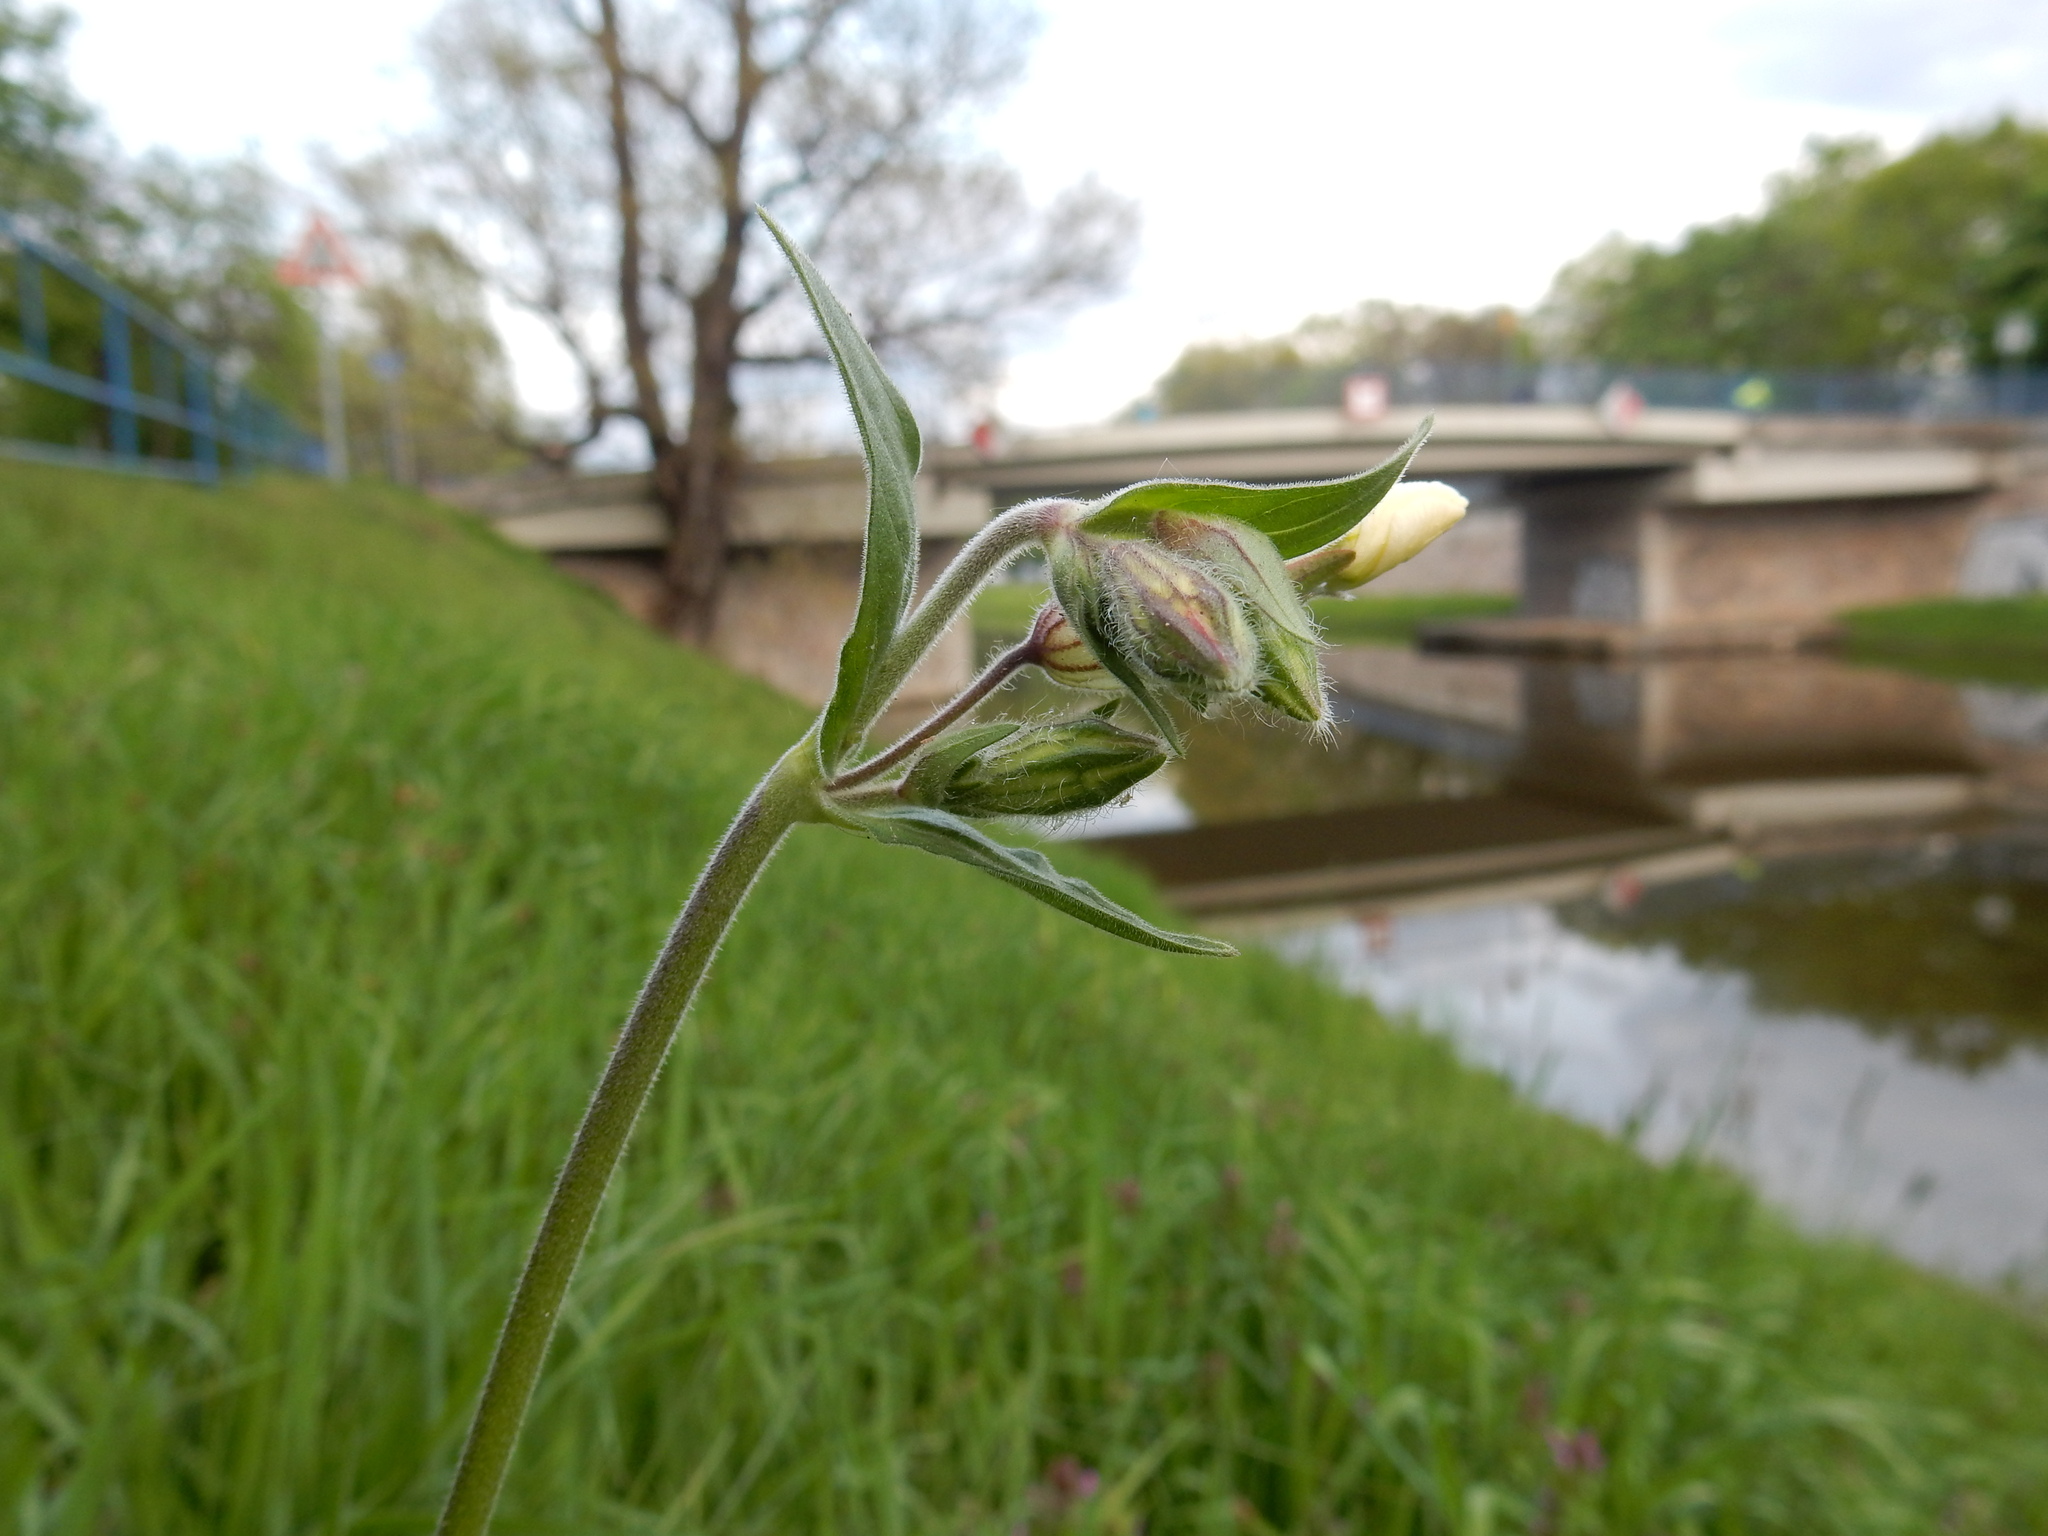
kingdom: Plantae
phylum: Tracheophyta
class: Magnoliopsida
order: Caryophyllales
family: Caryophyllaceae
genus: Silene
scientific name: Silene latifolia
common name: White campion
